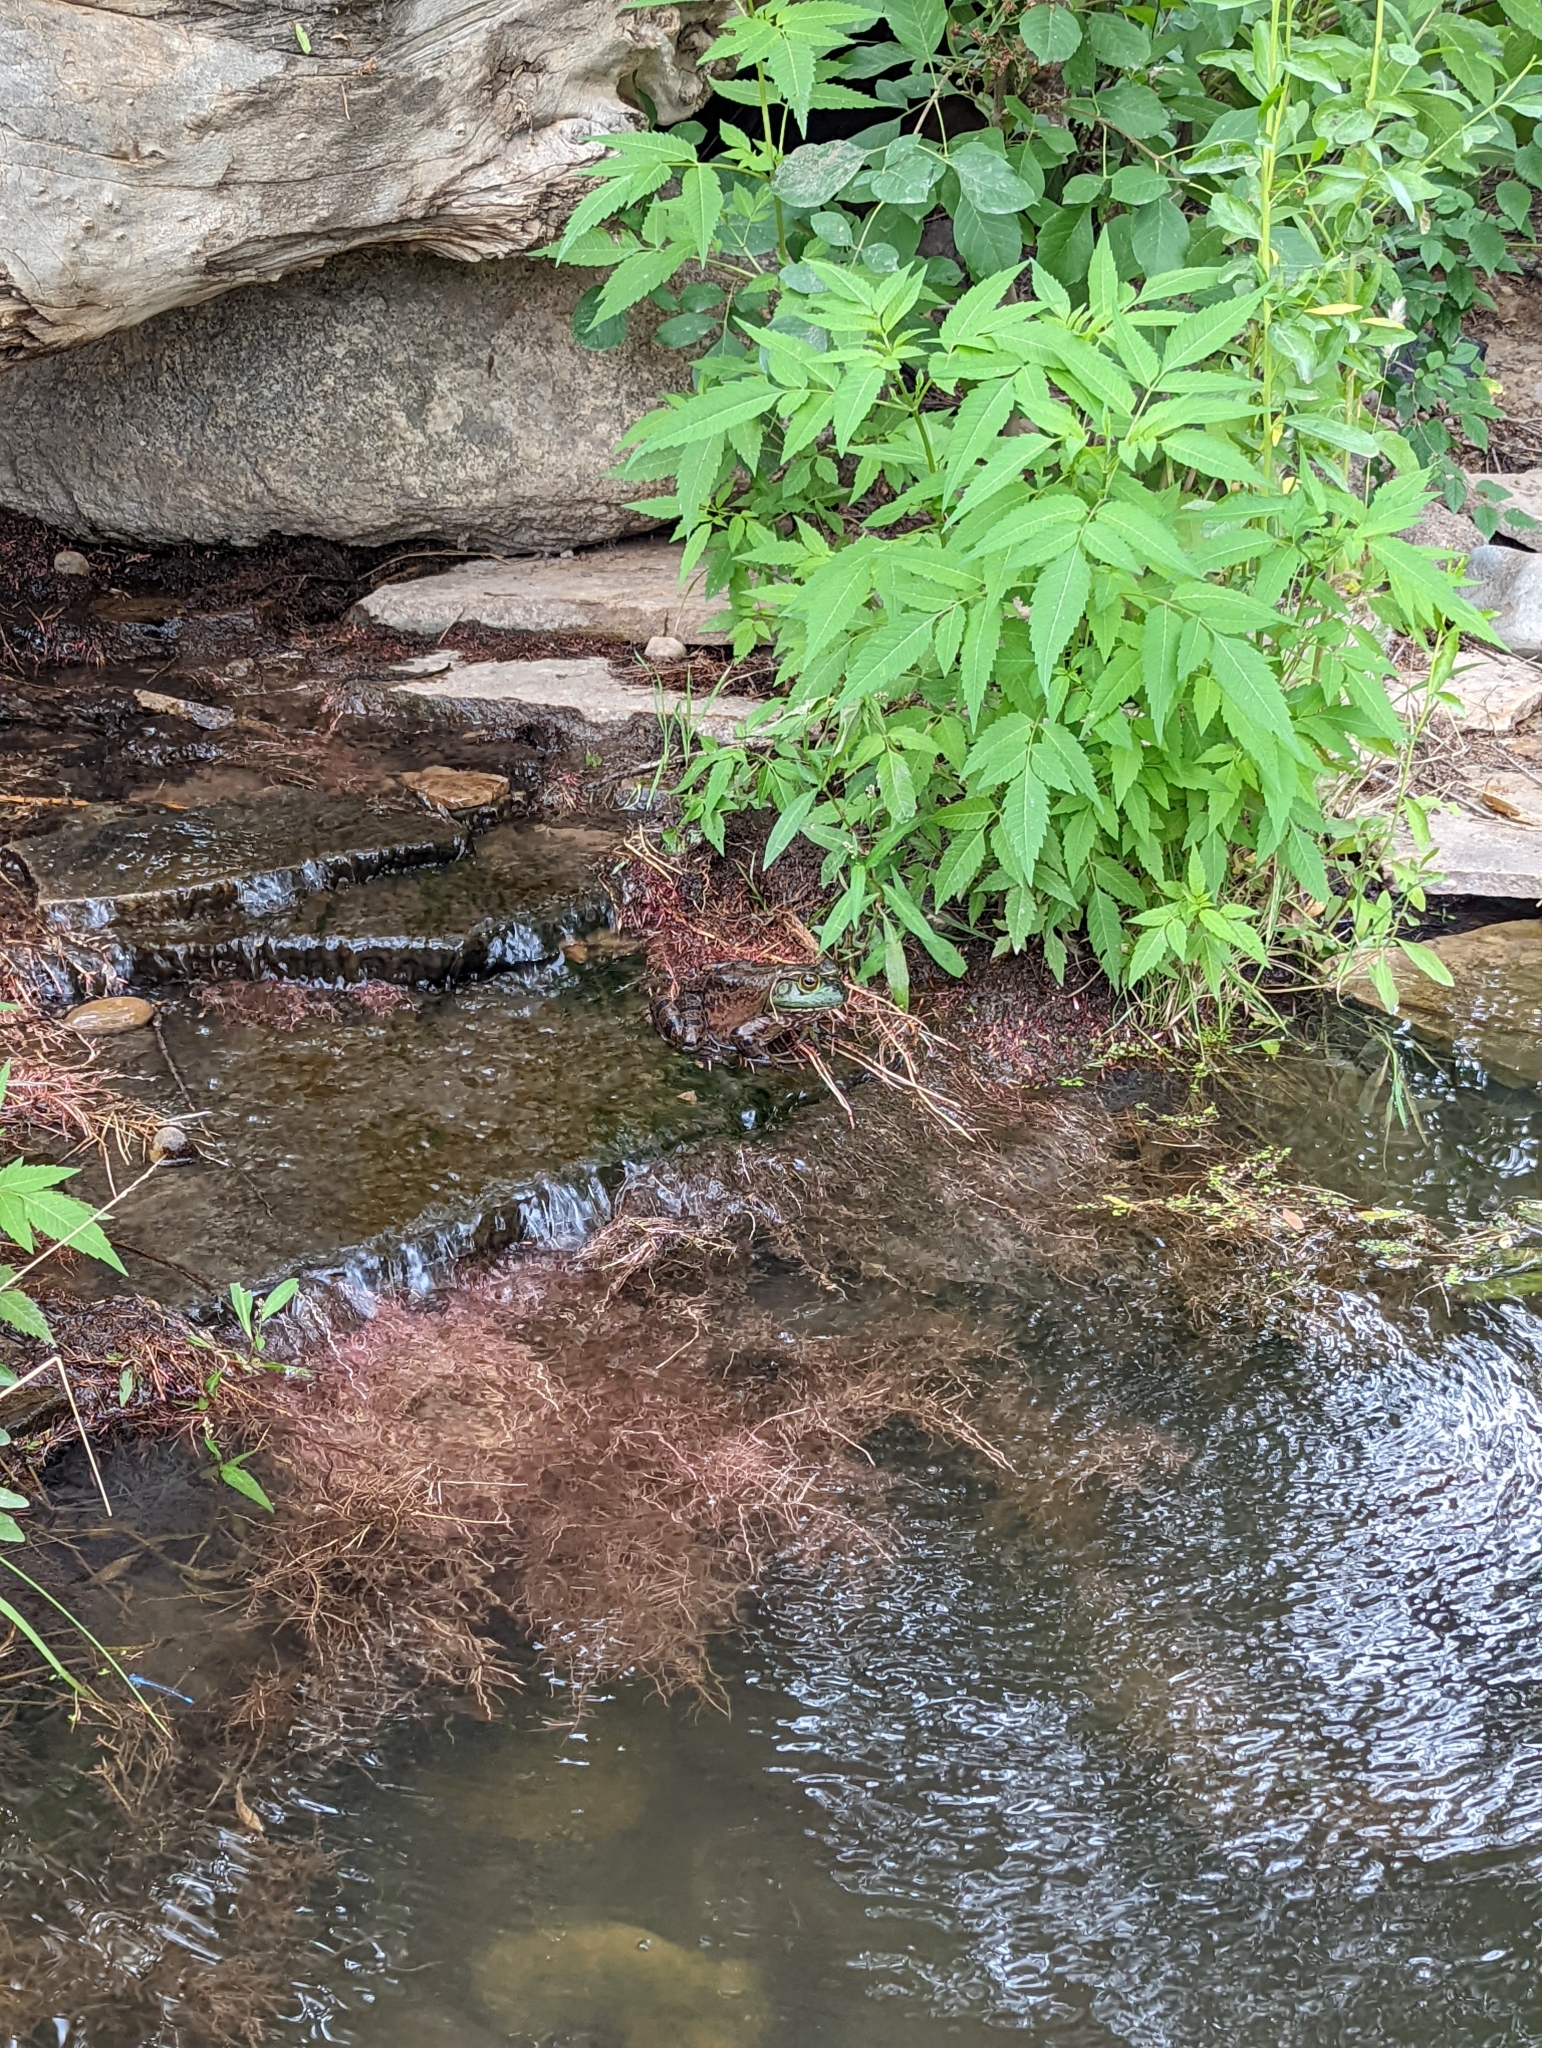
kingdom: Animalia
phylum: Chordata
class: Amphibia
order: Anura
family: Ranidae
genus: Lithobates
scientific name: Lithobates catesbeianus
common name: American bullfrog
